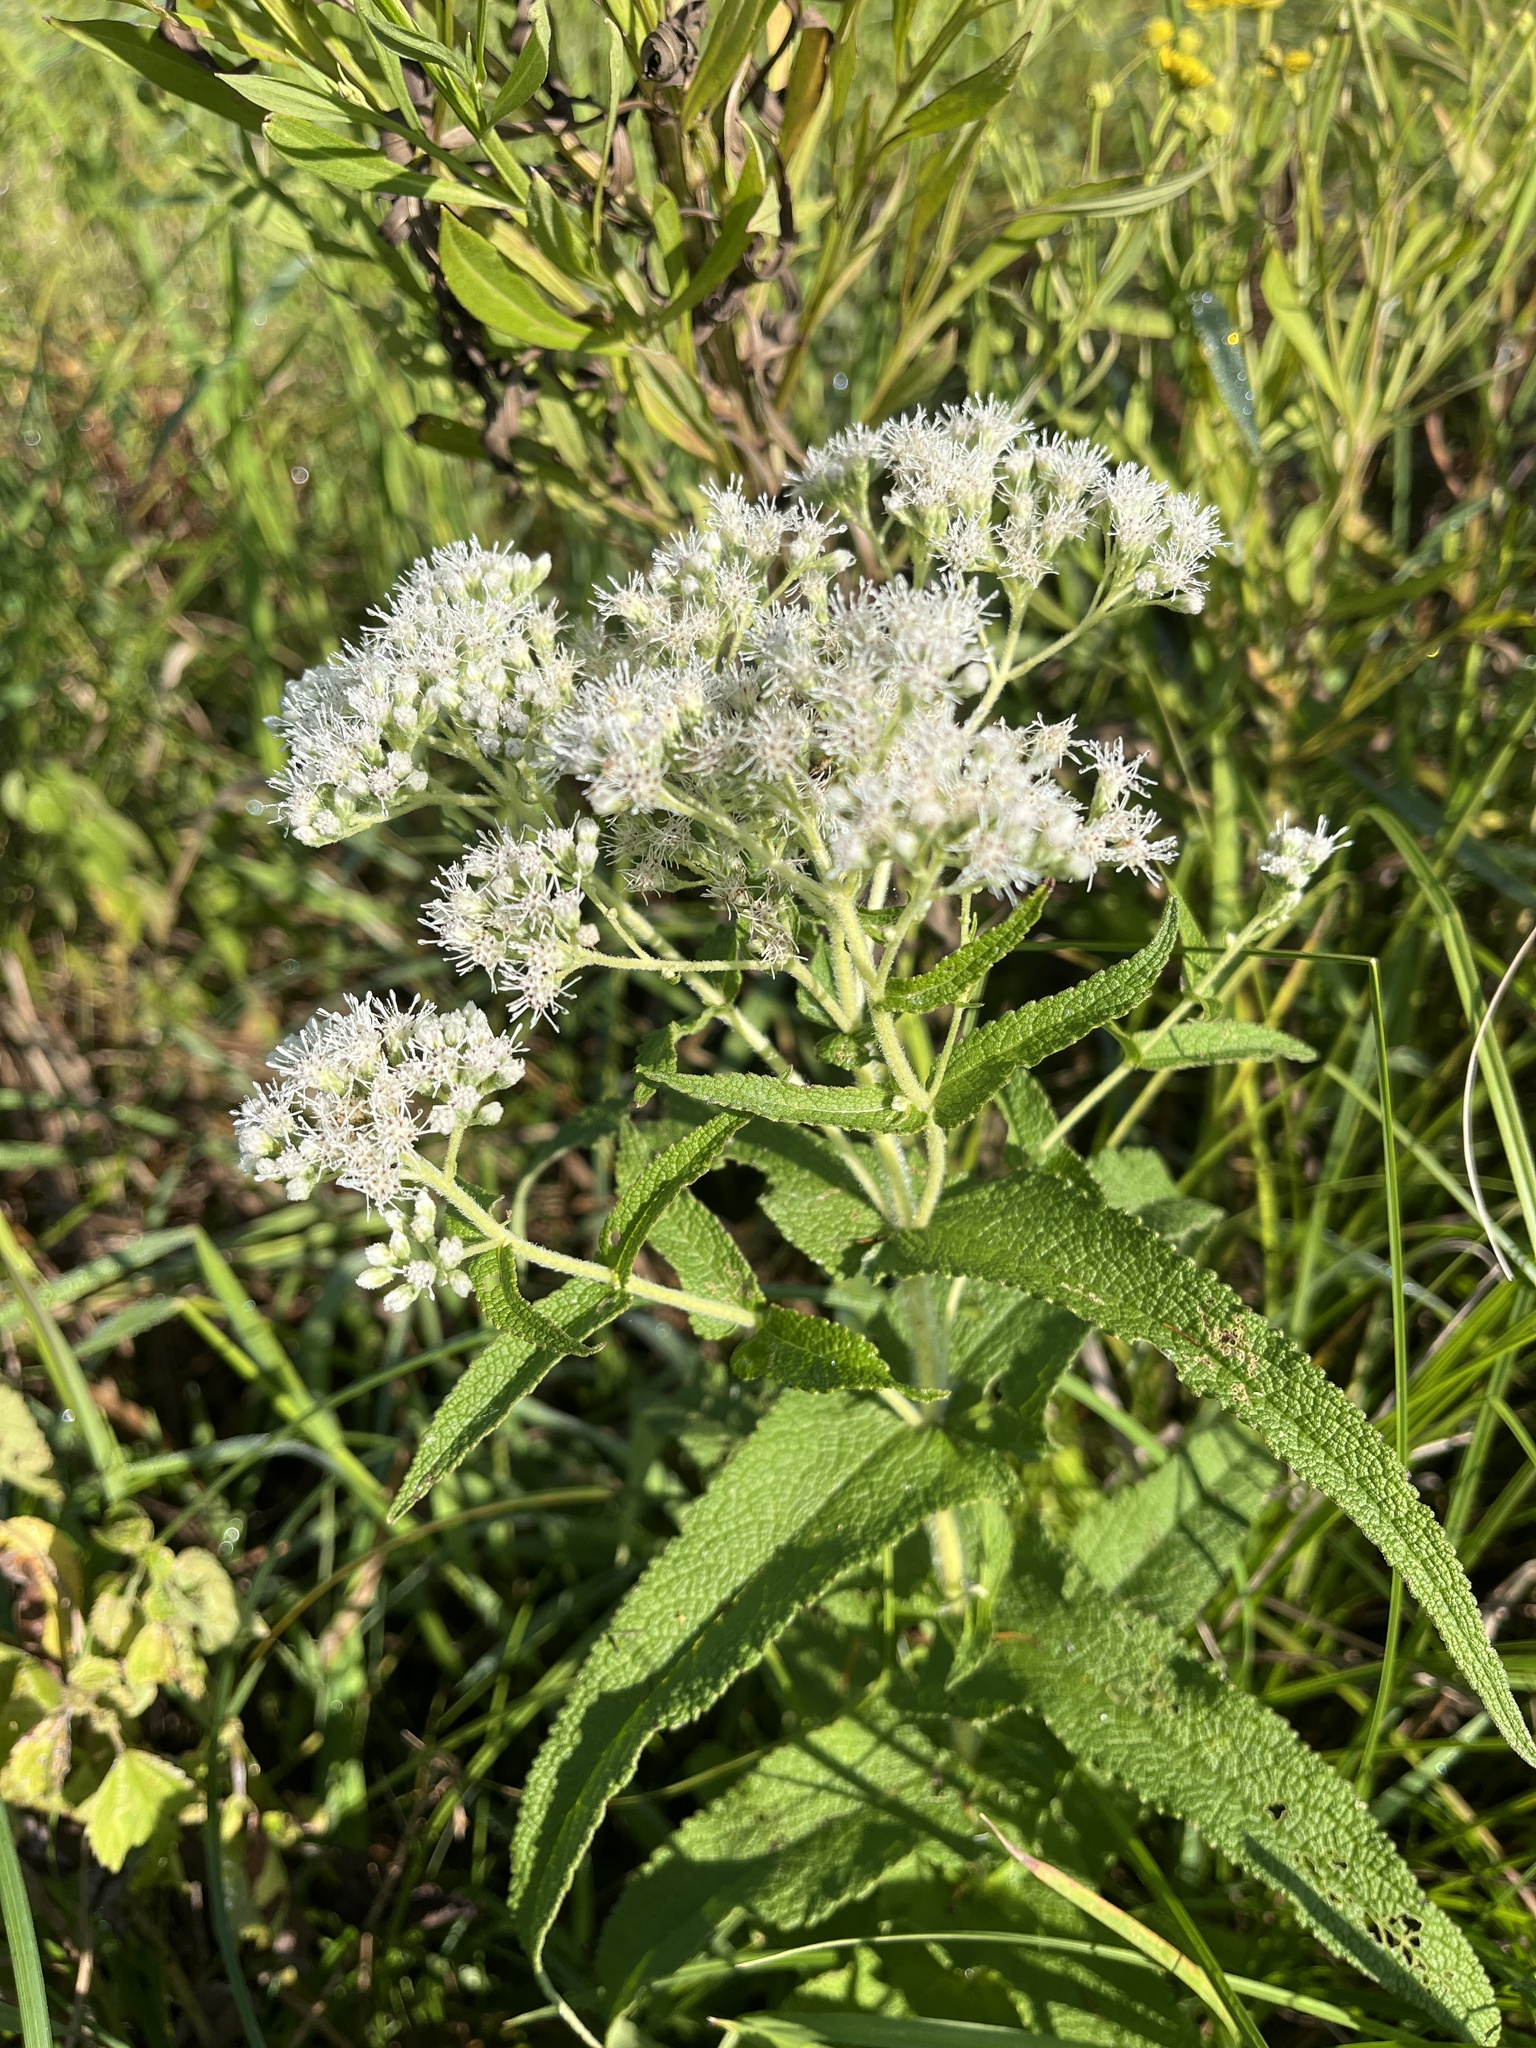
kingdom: Plantae
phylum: Tracheophyta
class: Magnoliopsida
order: Asterales
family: Asteraceae
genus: Eupatorium
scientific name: Eupatorium perfoliatum
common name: Boneset
